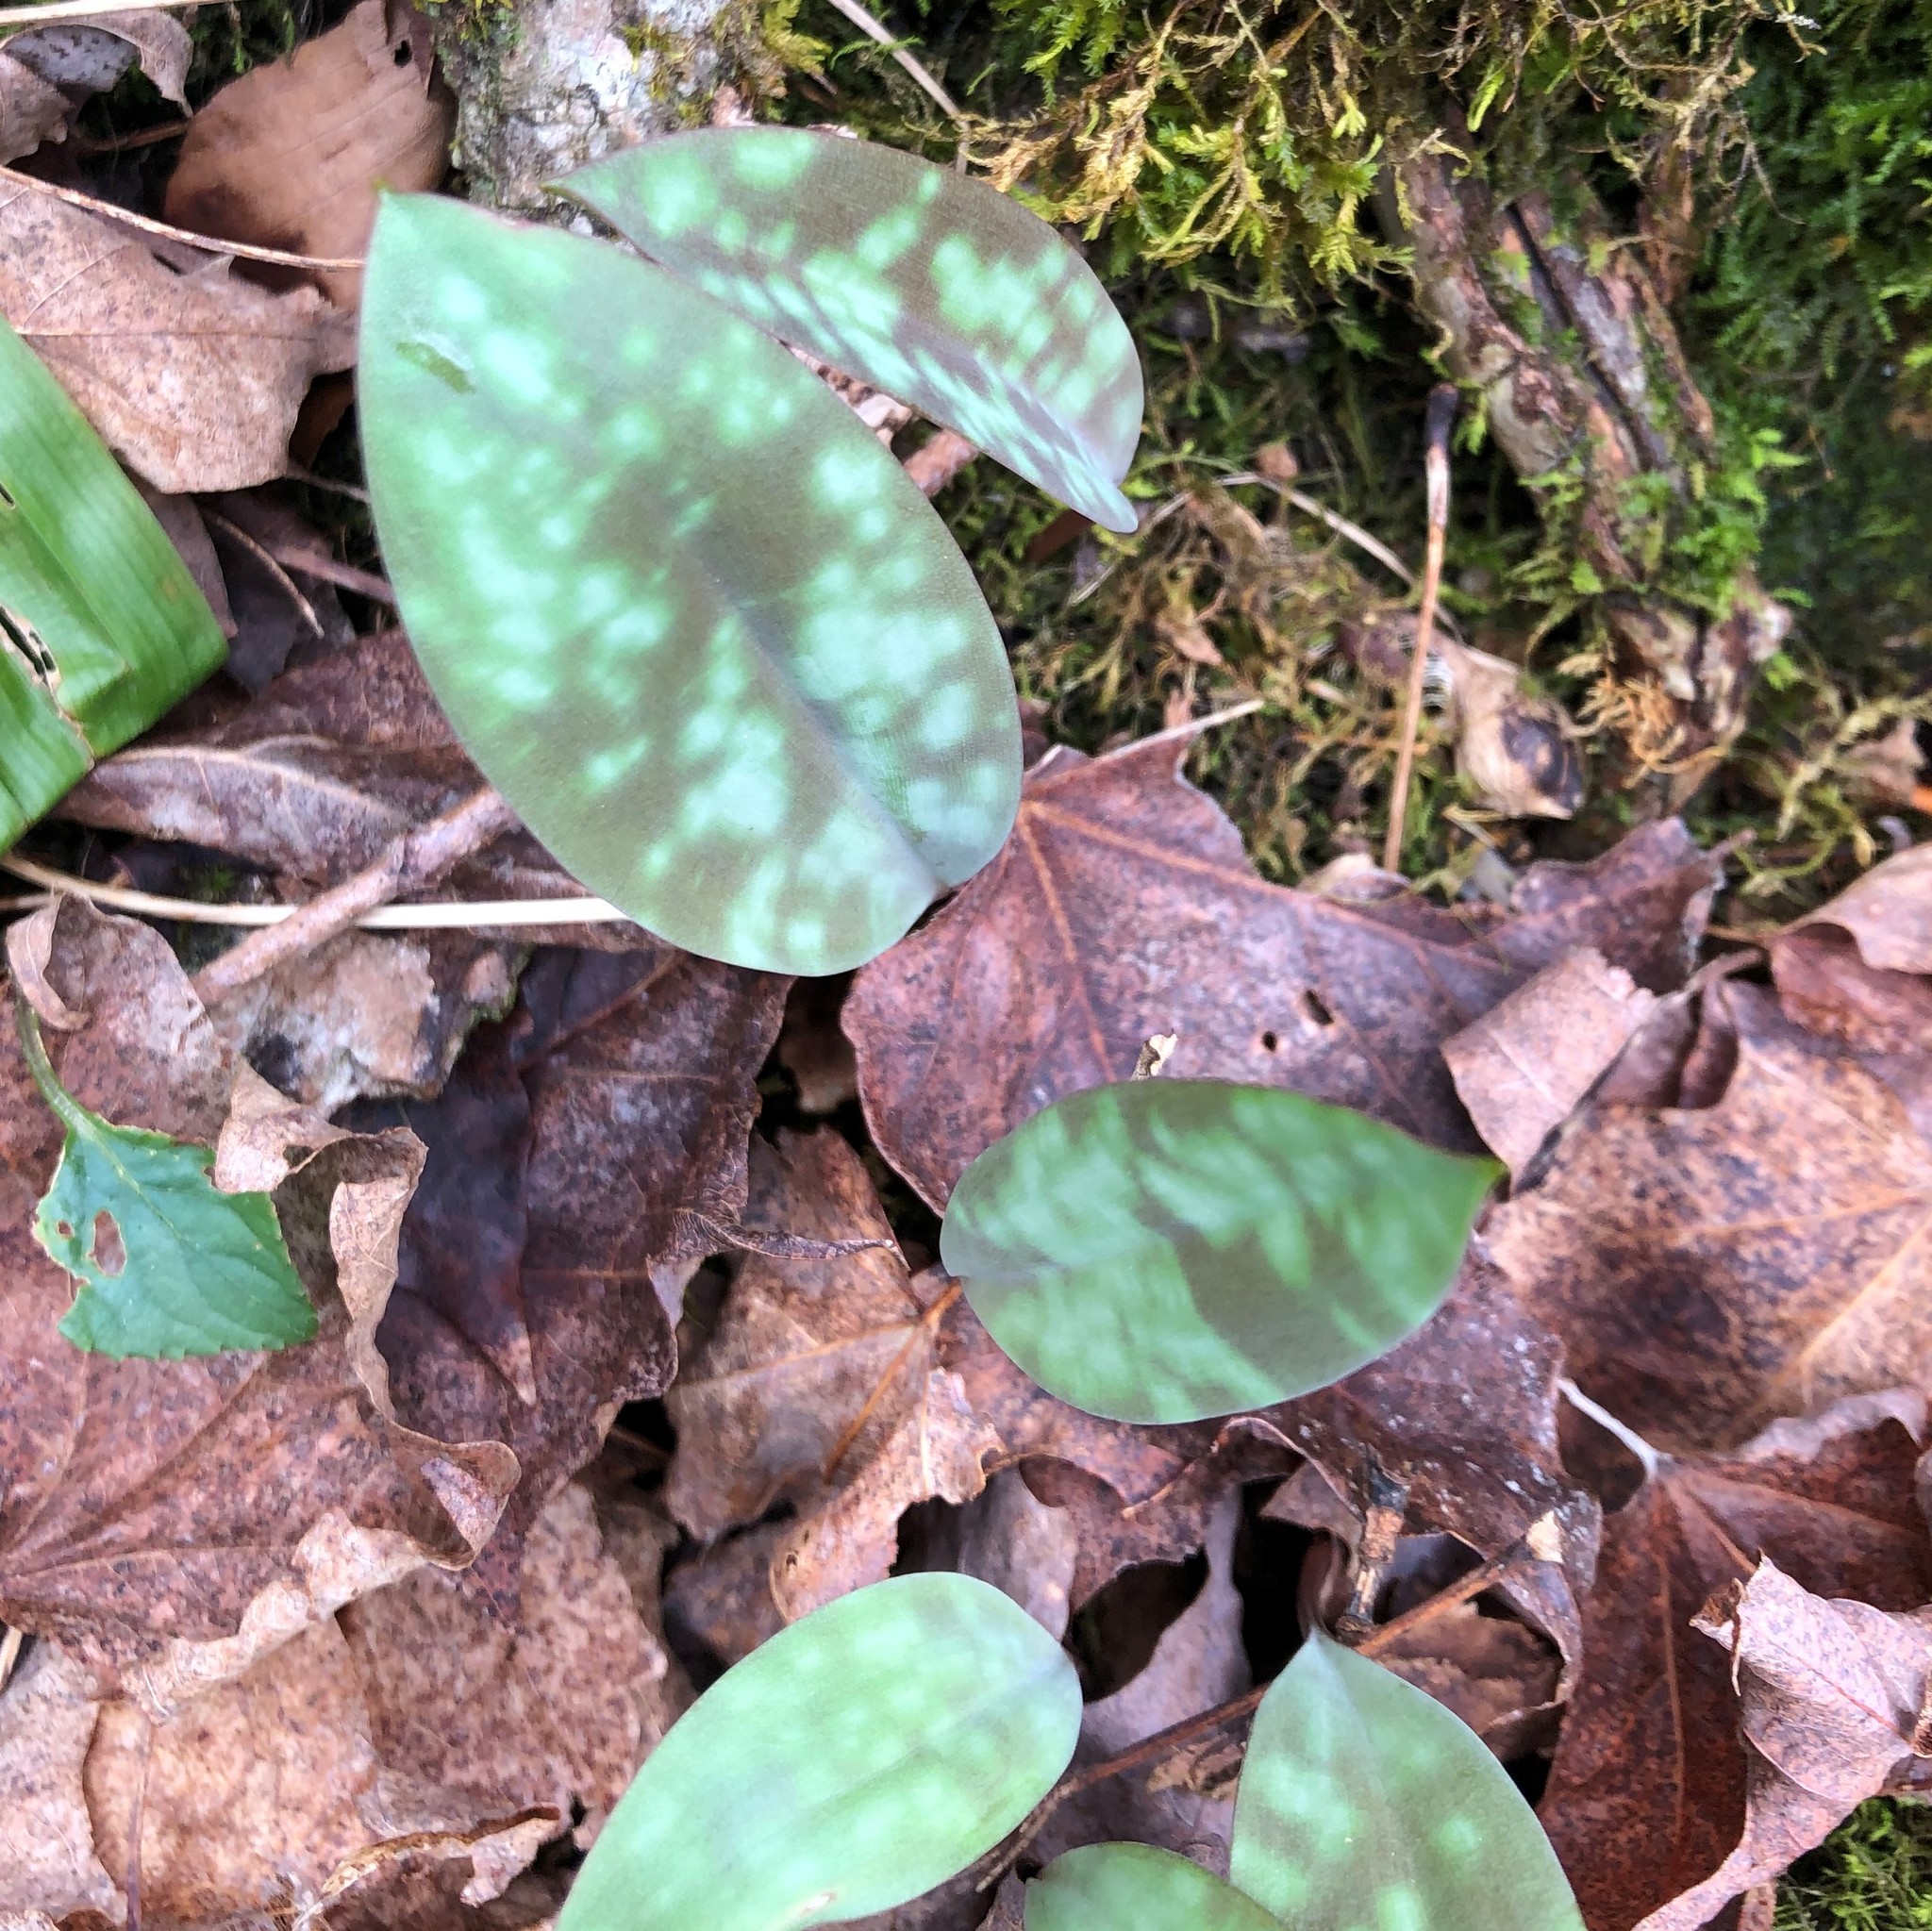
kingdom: Plantae
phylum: Tracheophyta
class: Liliopsida
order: Liliales
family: Liliaceae
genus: Erythronium
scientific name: Erythronium americanum
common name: Yellow adder's-tongue
